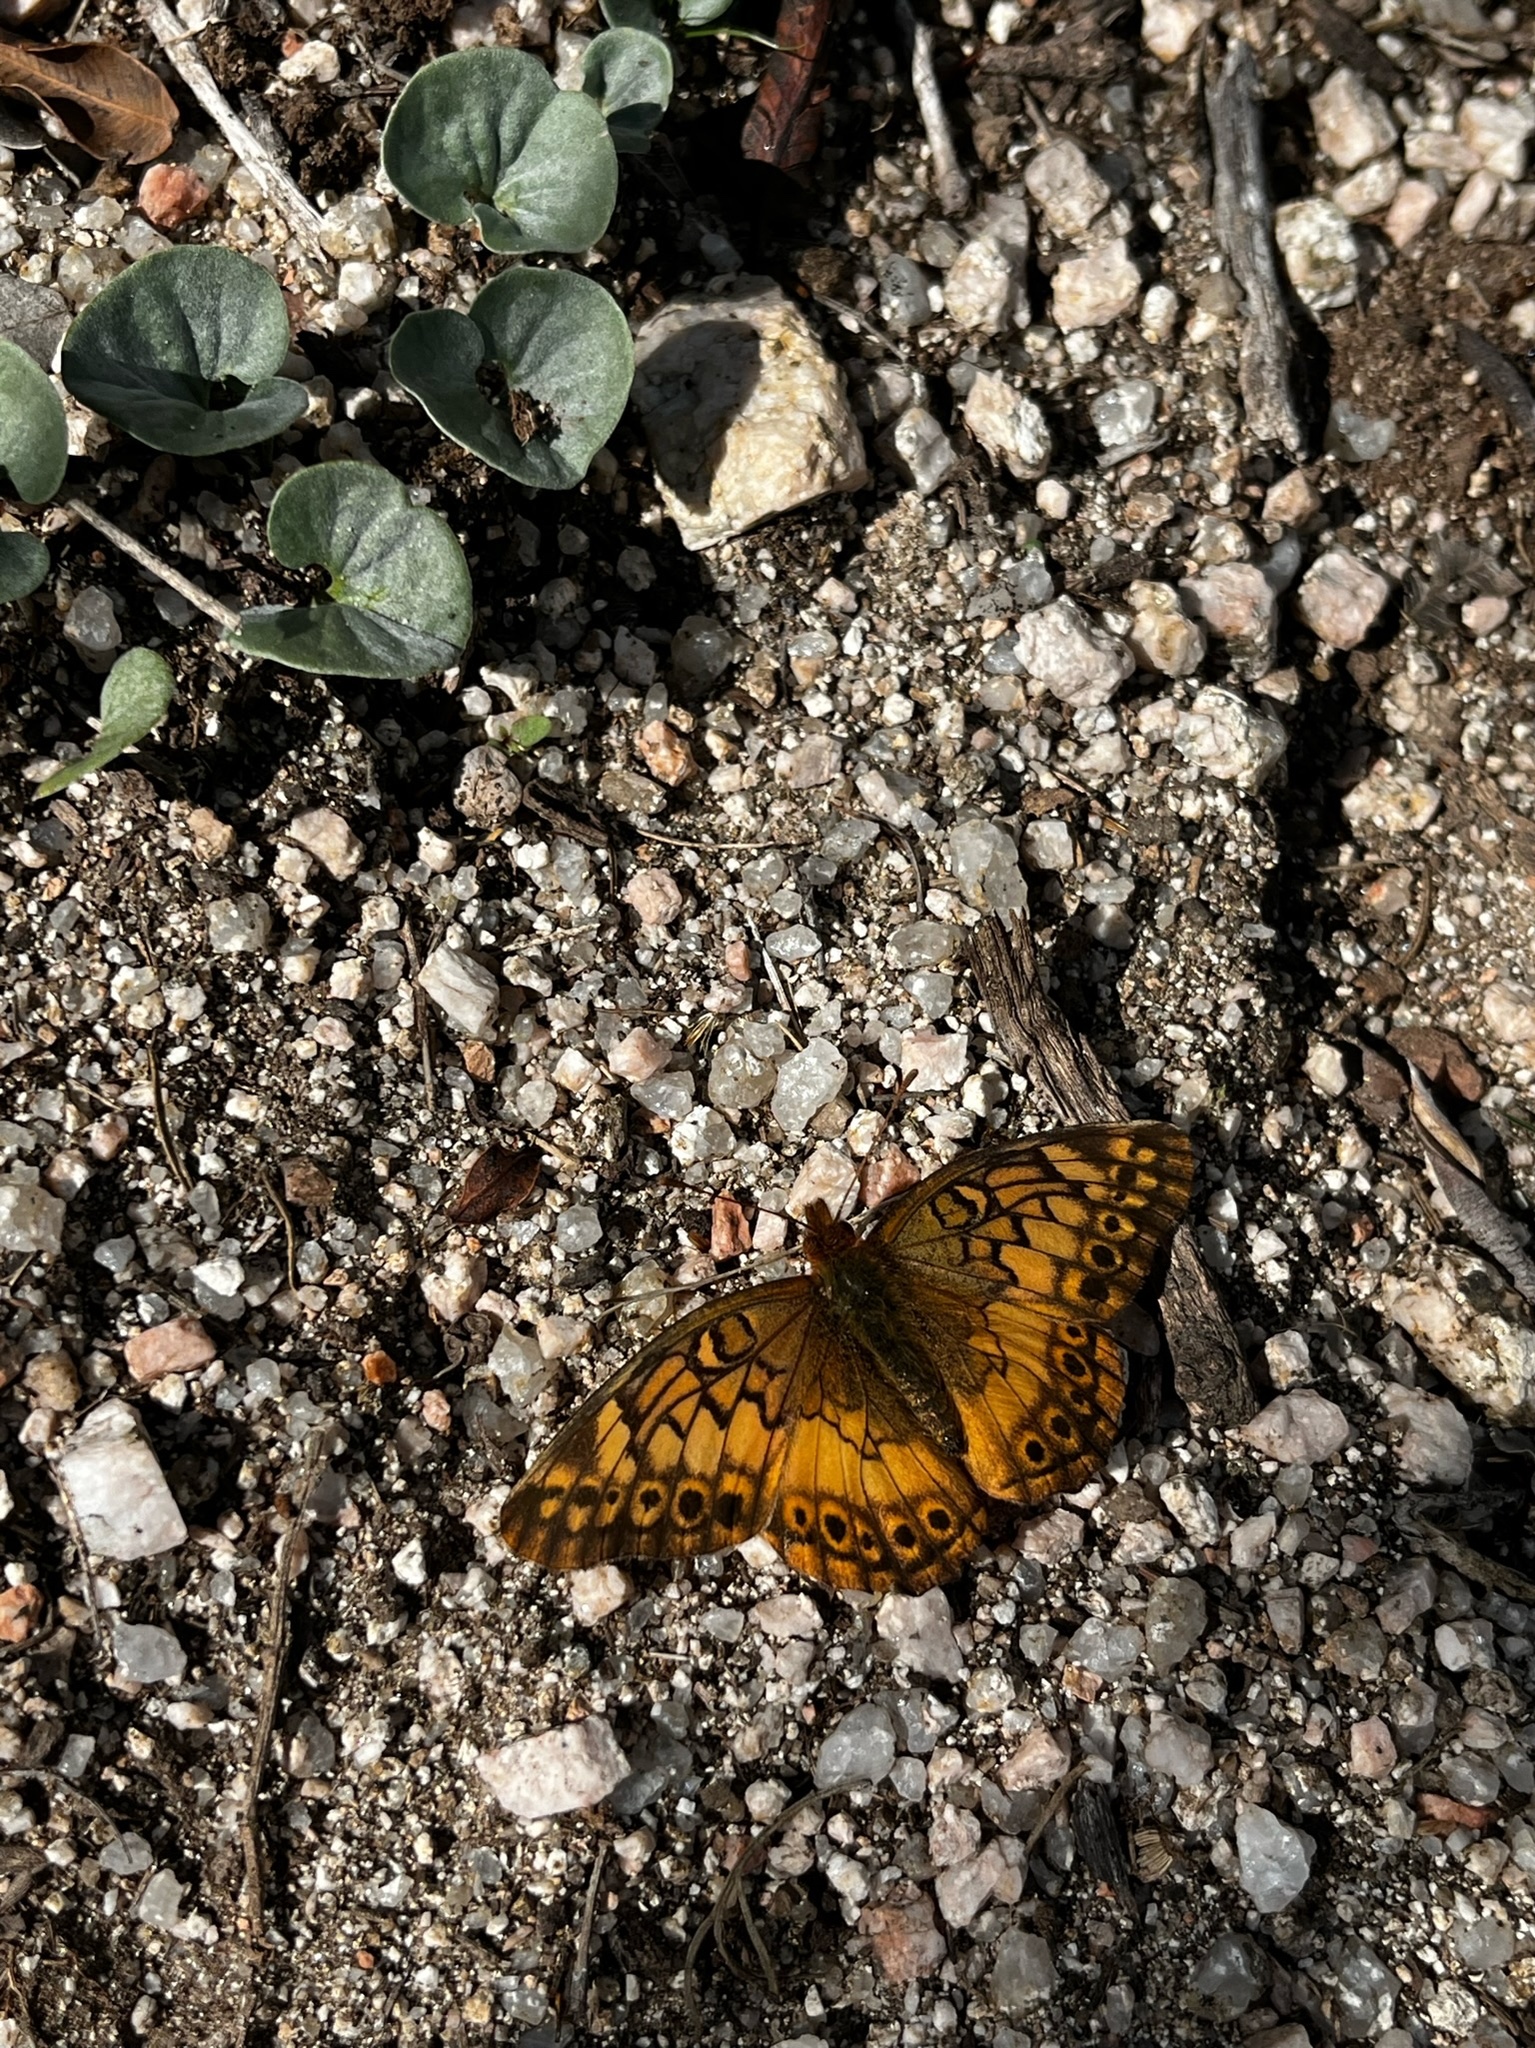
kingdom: Animalia
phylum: Arthropoda
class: Insecta
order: Lepidoptera
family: Nymphalidae
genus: Euptoieta
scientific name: Euptoieta hortensia
